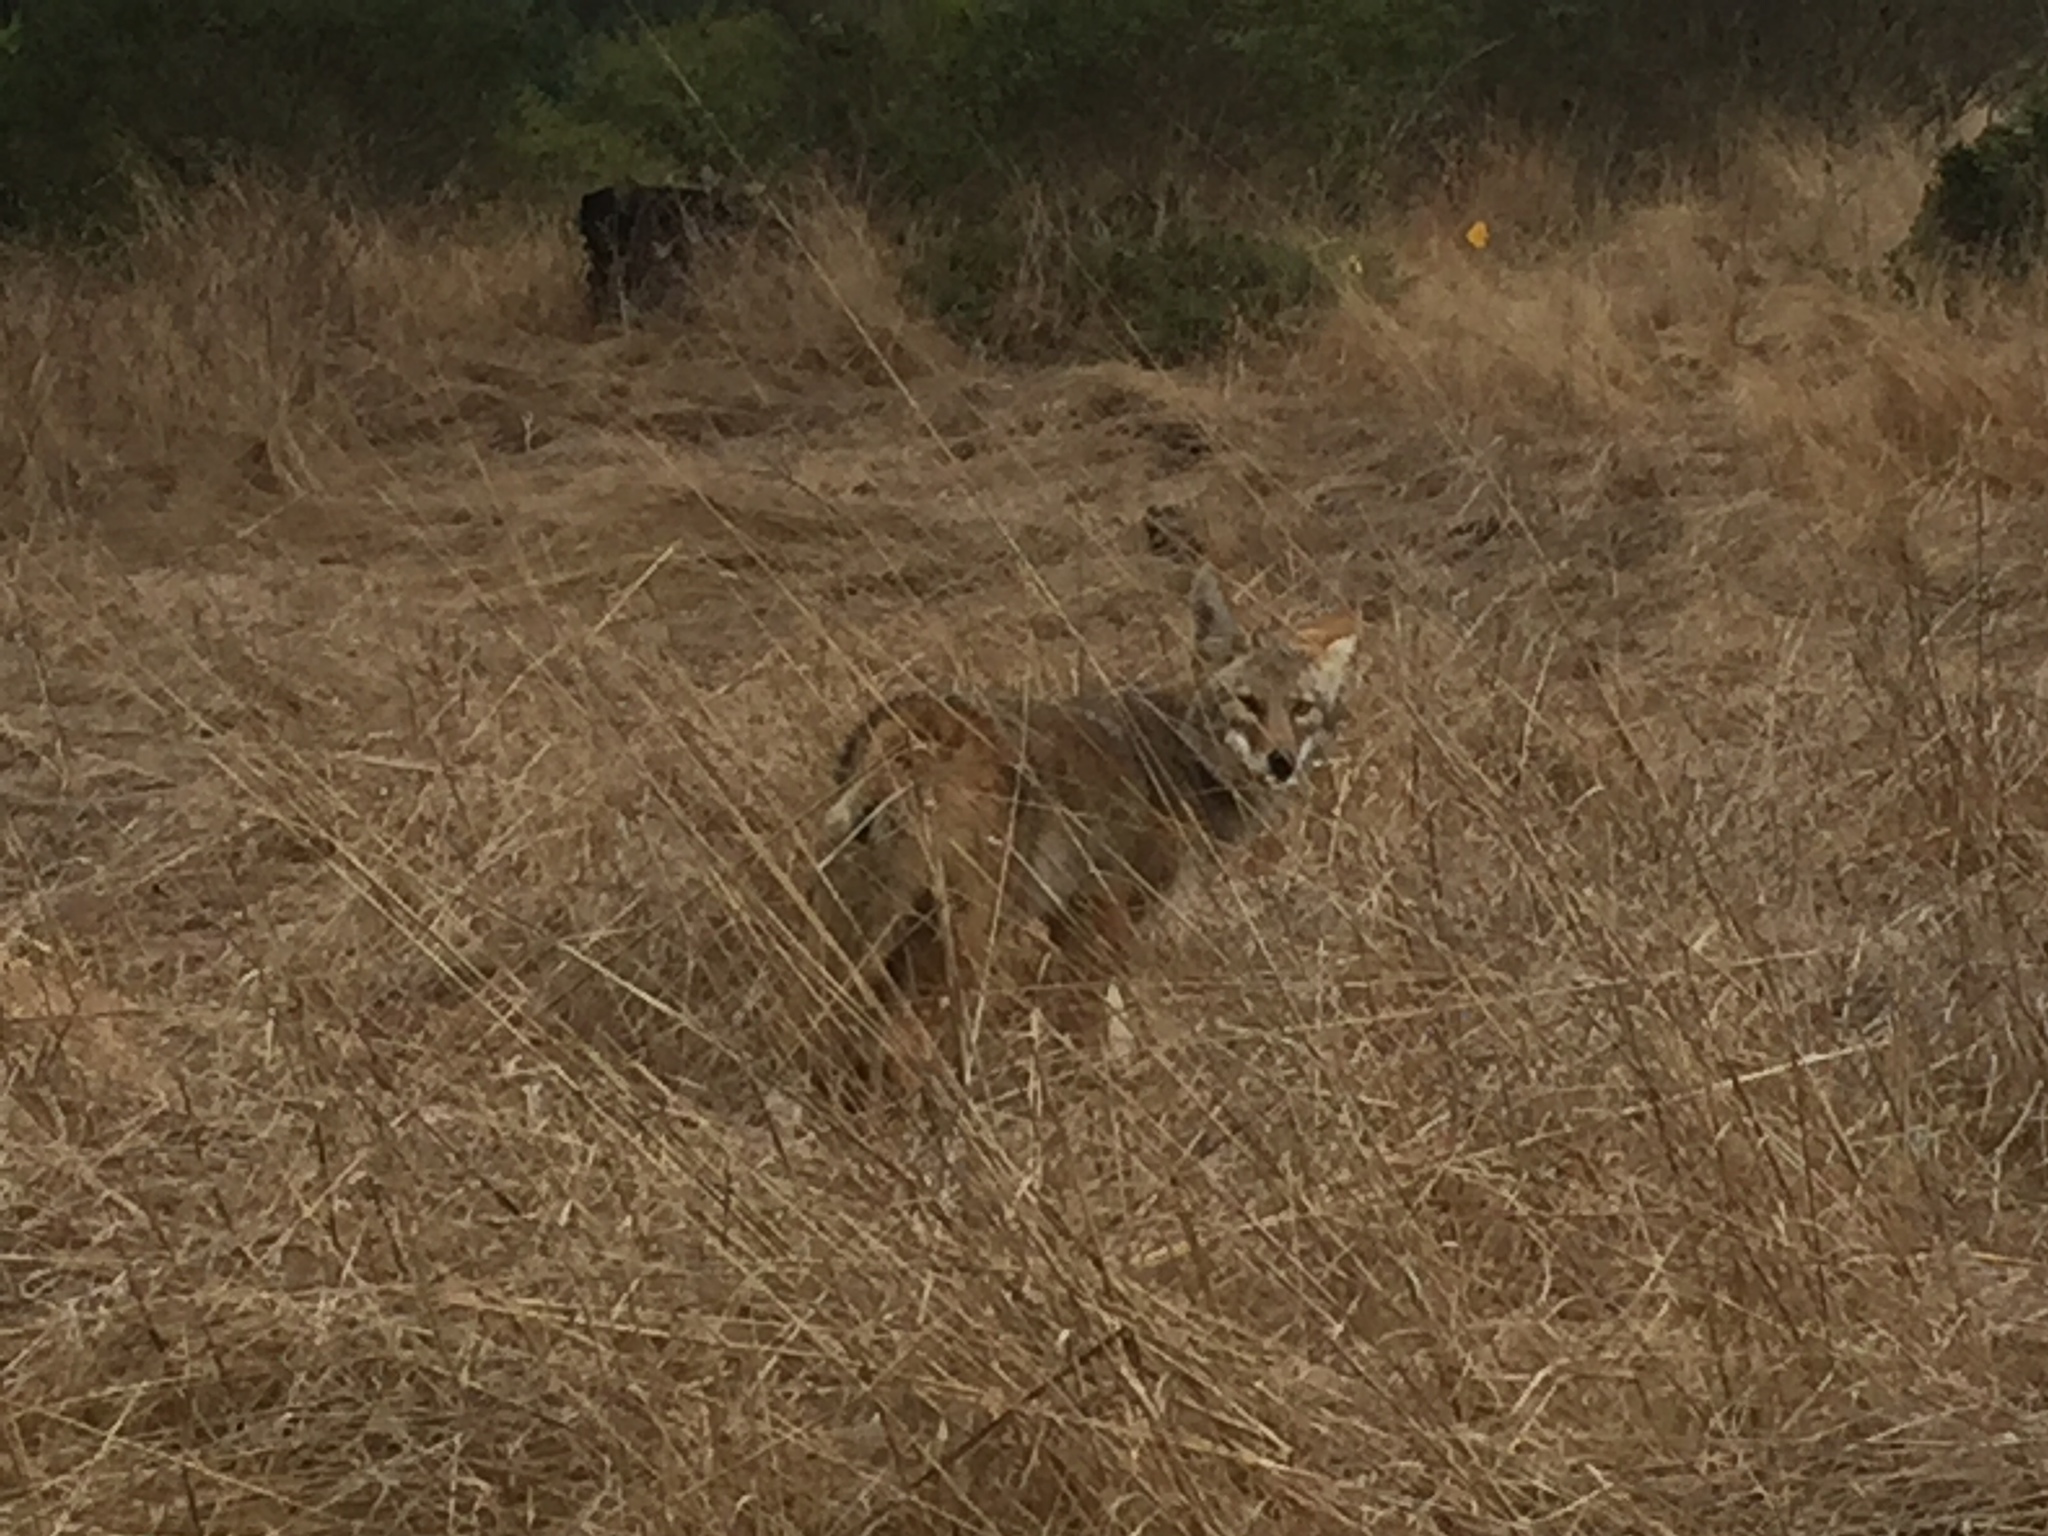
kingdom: Animalia
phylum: Chordata
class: Mammalia
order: Carnivora
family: Canidae
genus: Canis
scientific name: Canis latrans
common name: Coyote
